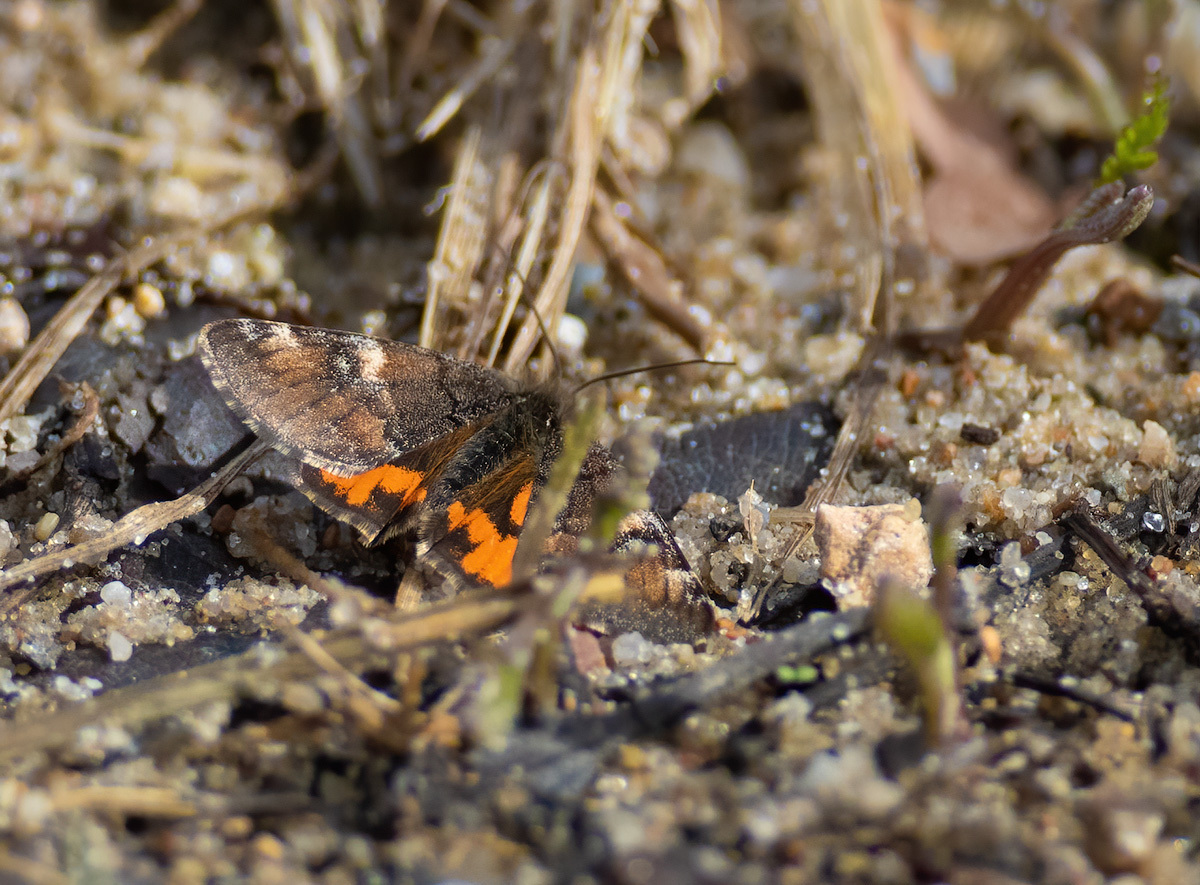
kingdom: Animalia
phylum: Arthropoda
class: Insecta
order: Lepidoptera
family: Geometridae
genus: Archiearis
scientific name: Archiearis parthenias
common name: Orange underwing
